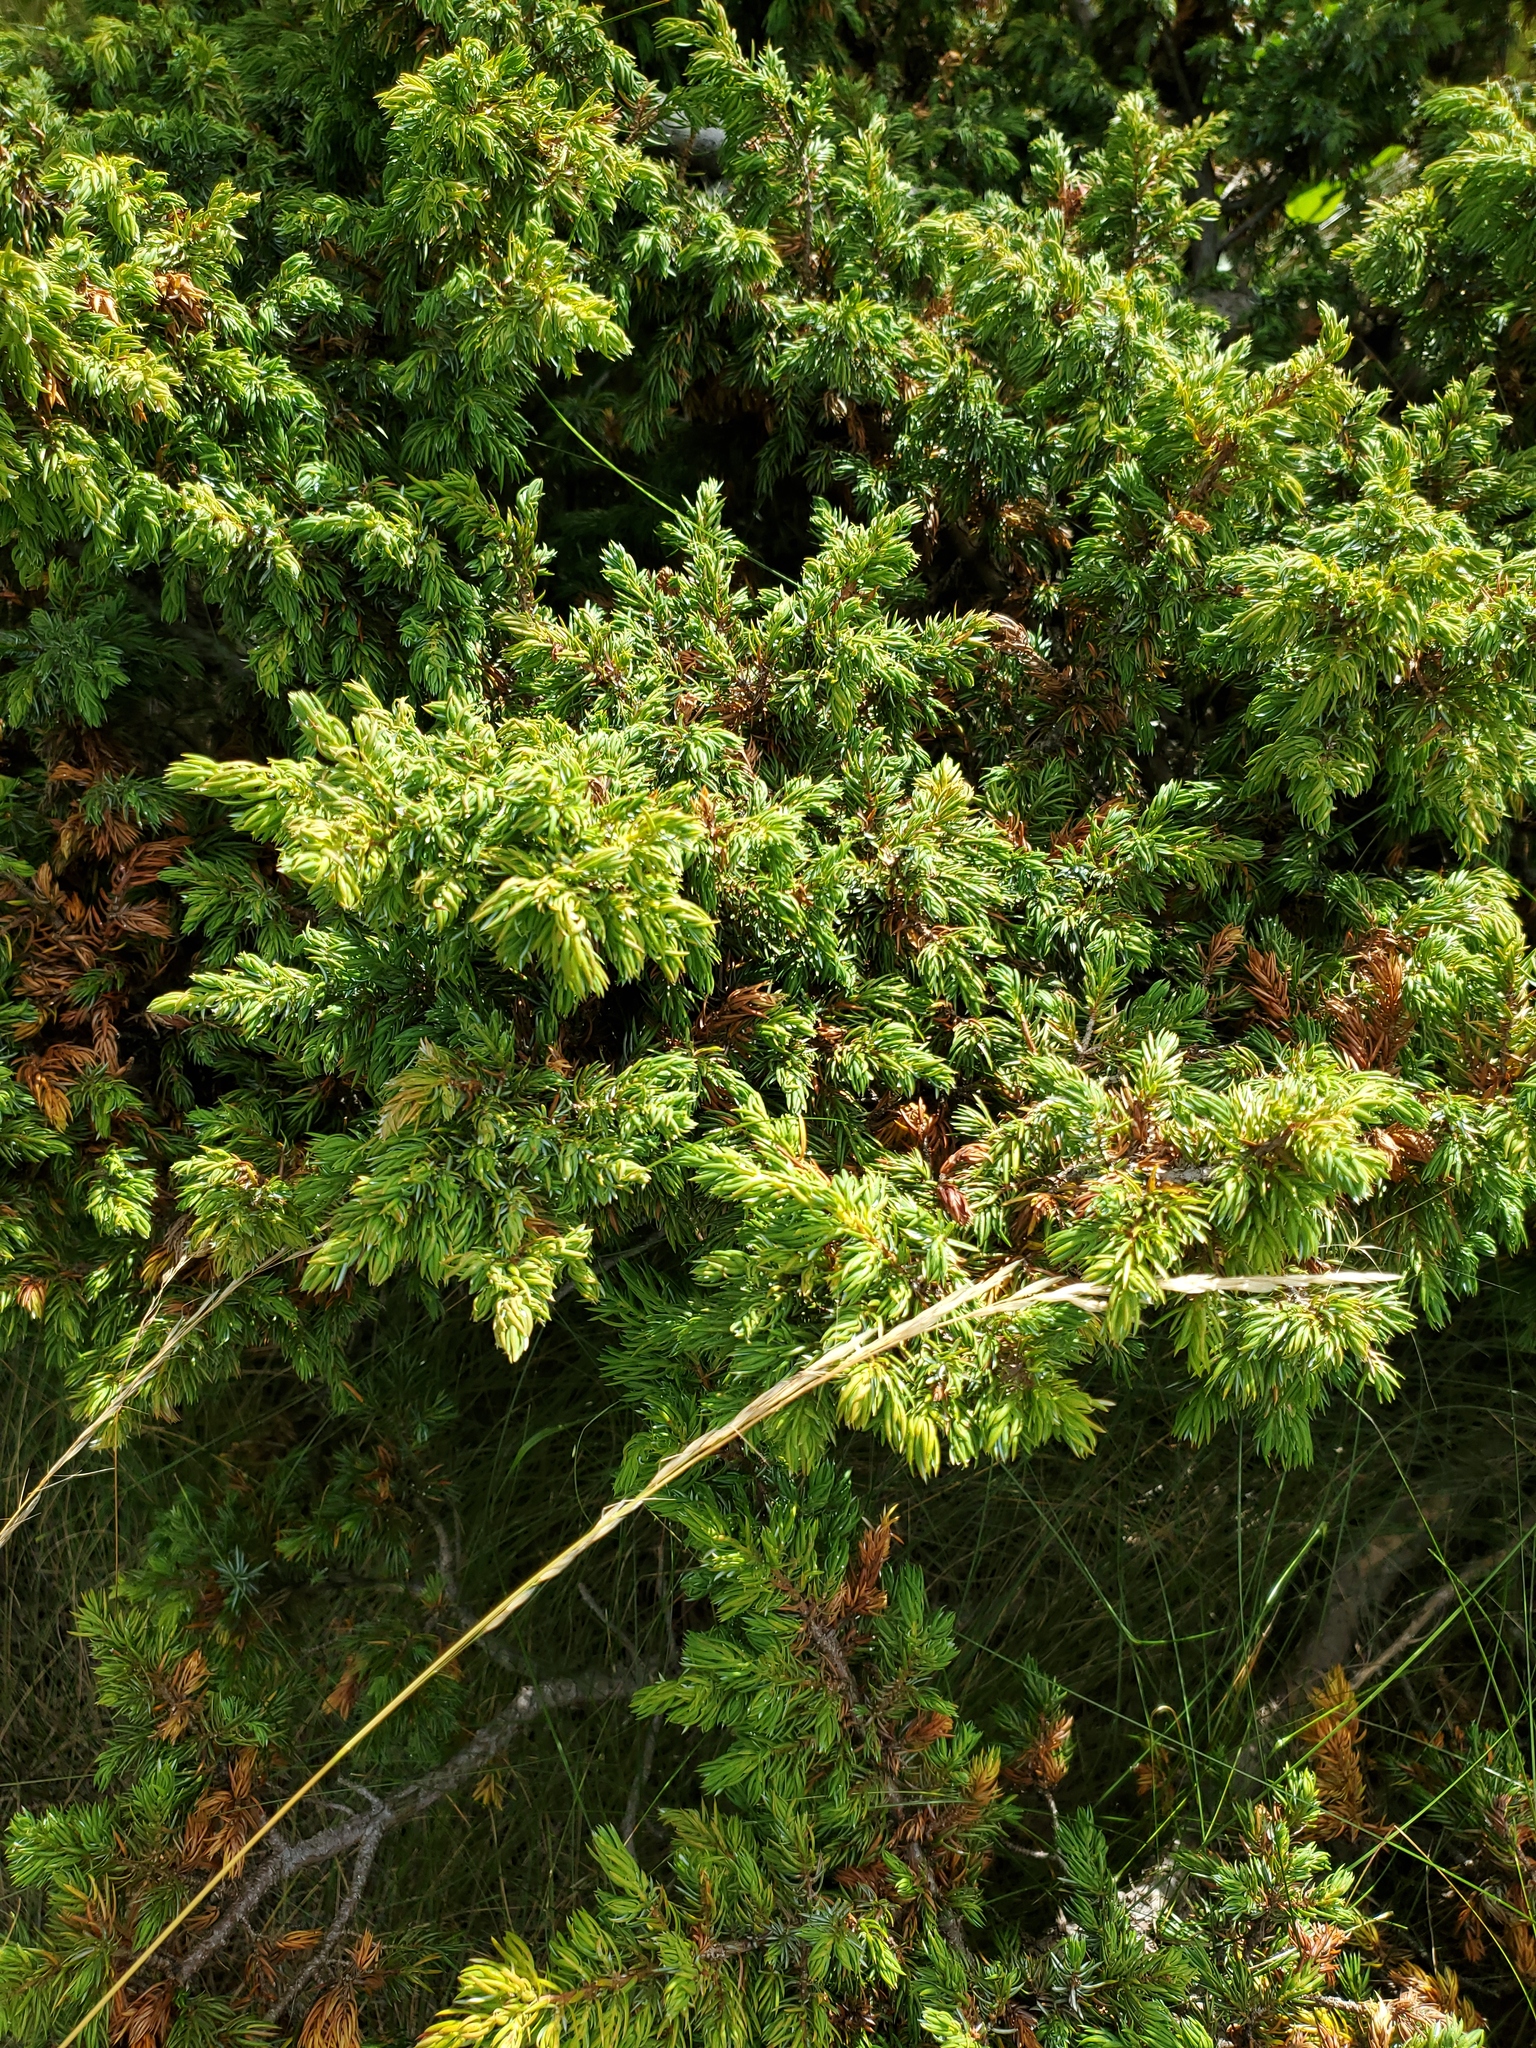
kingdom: Plantae
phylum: Tracheophyta
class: Pinopsida
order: Pinales
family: Cupressaceae
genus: Juniperus
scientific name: Juniperus communis
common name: Common juniper
